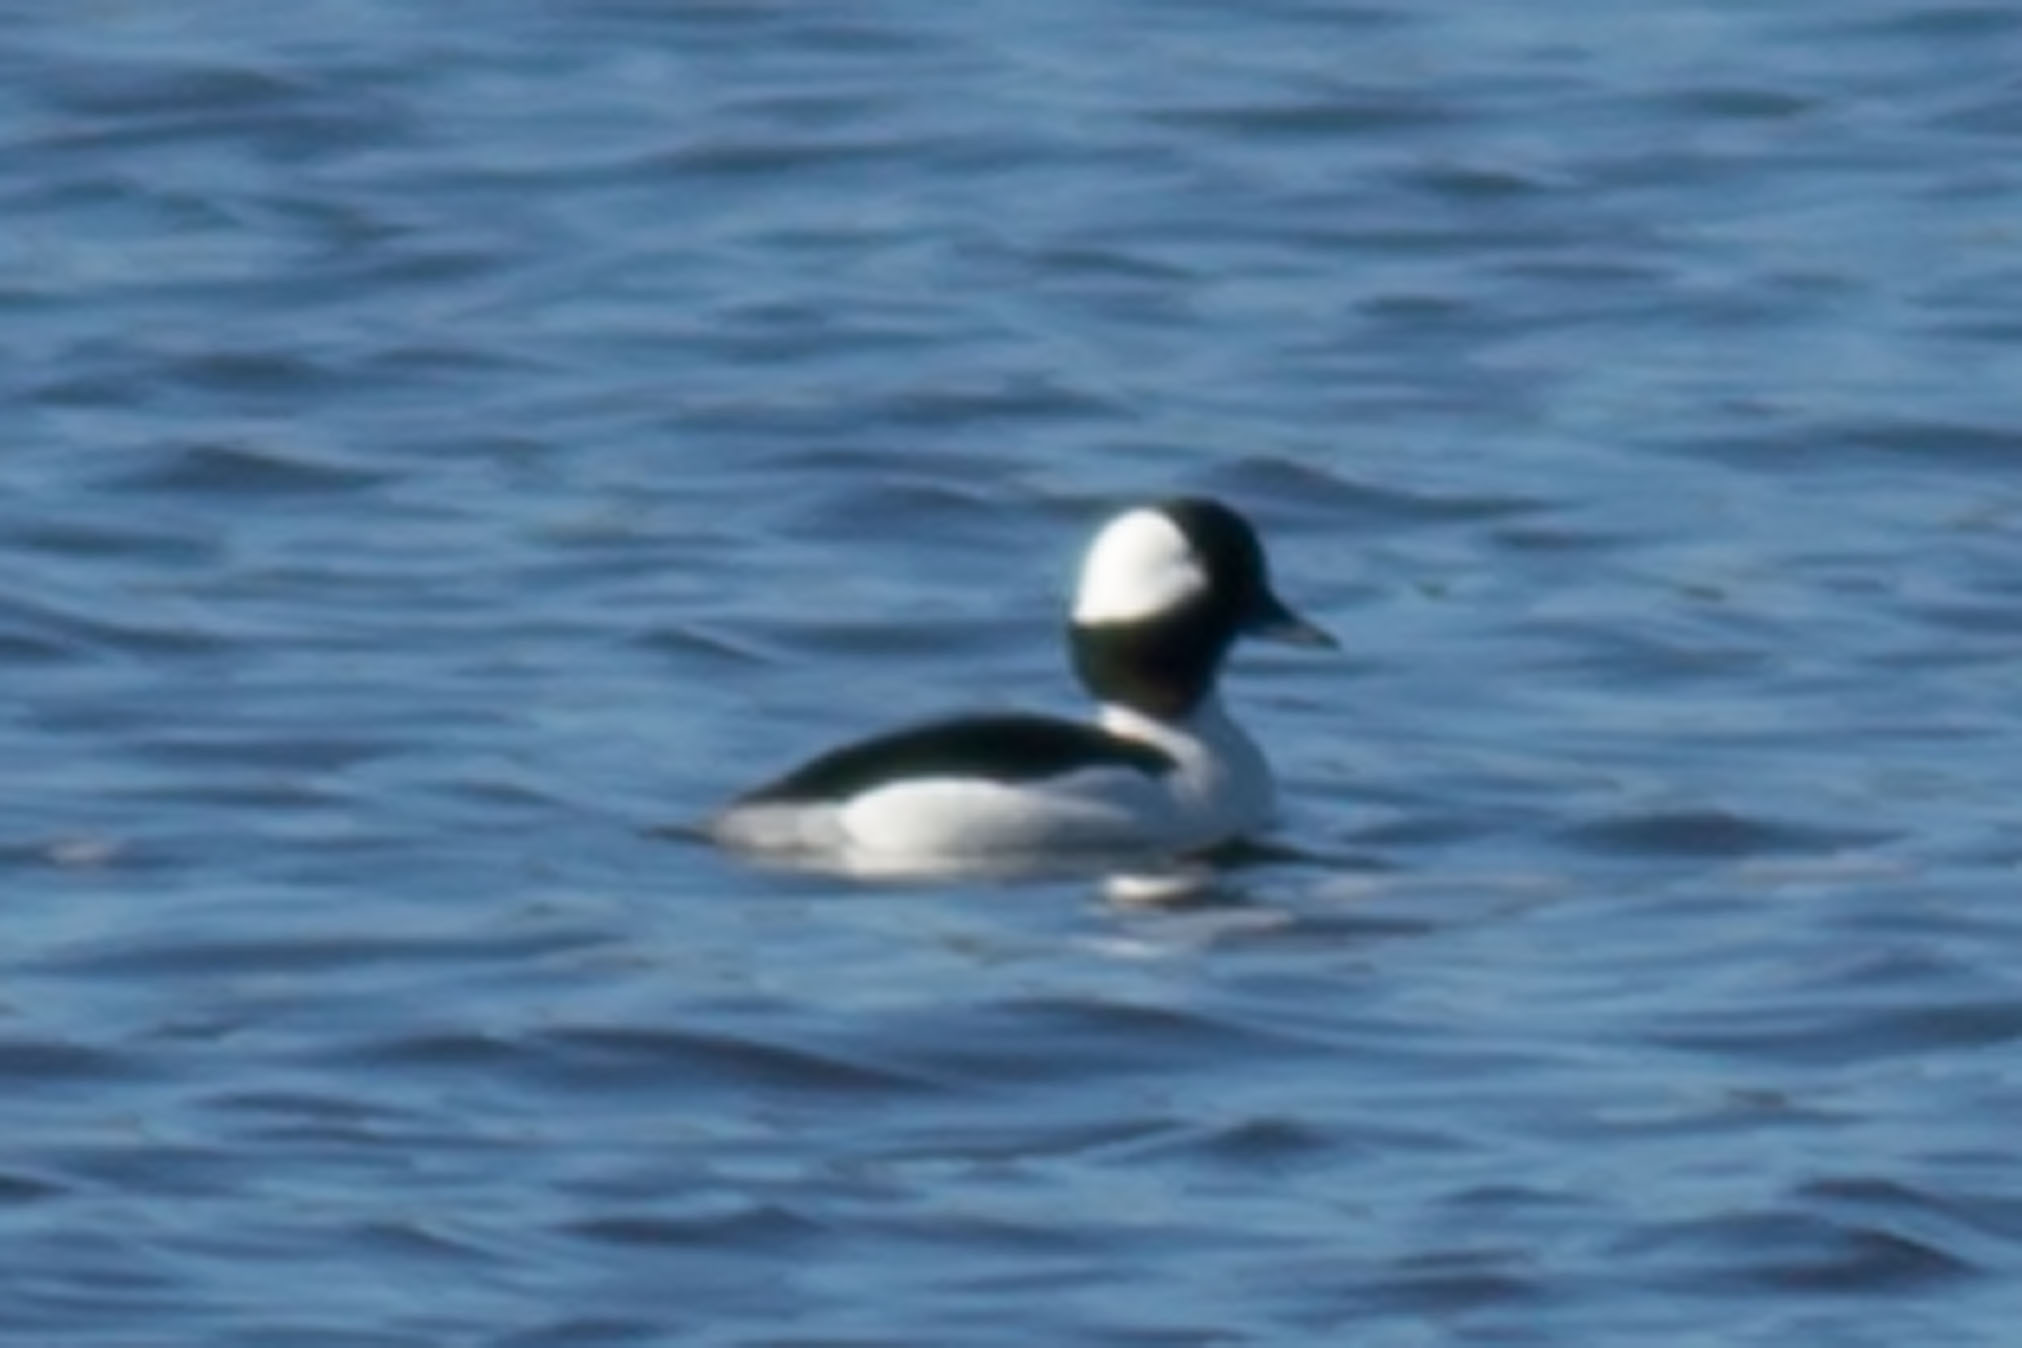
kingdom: Animalia
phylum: Chordata
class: Aves
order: Anseriformes
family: Anatidae
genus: Bucephala
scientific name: Bucephala albeola
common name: Bufflehead
